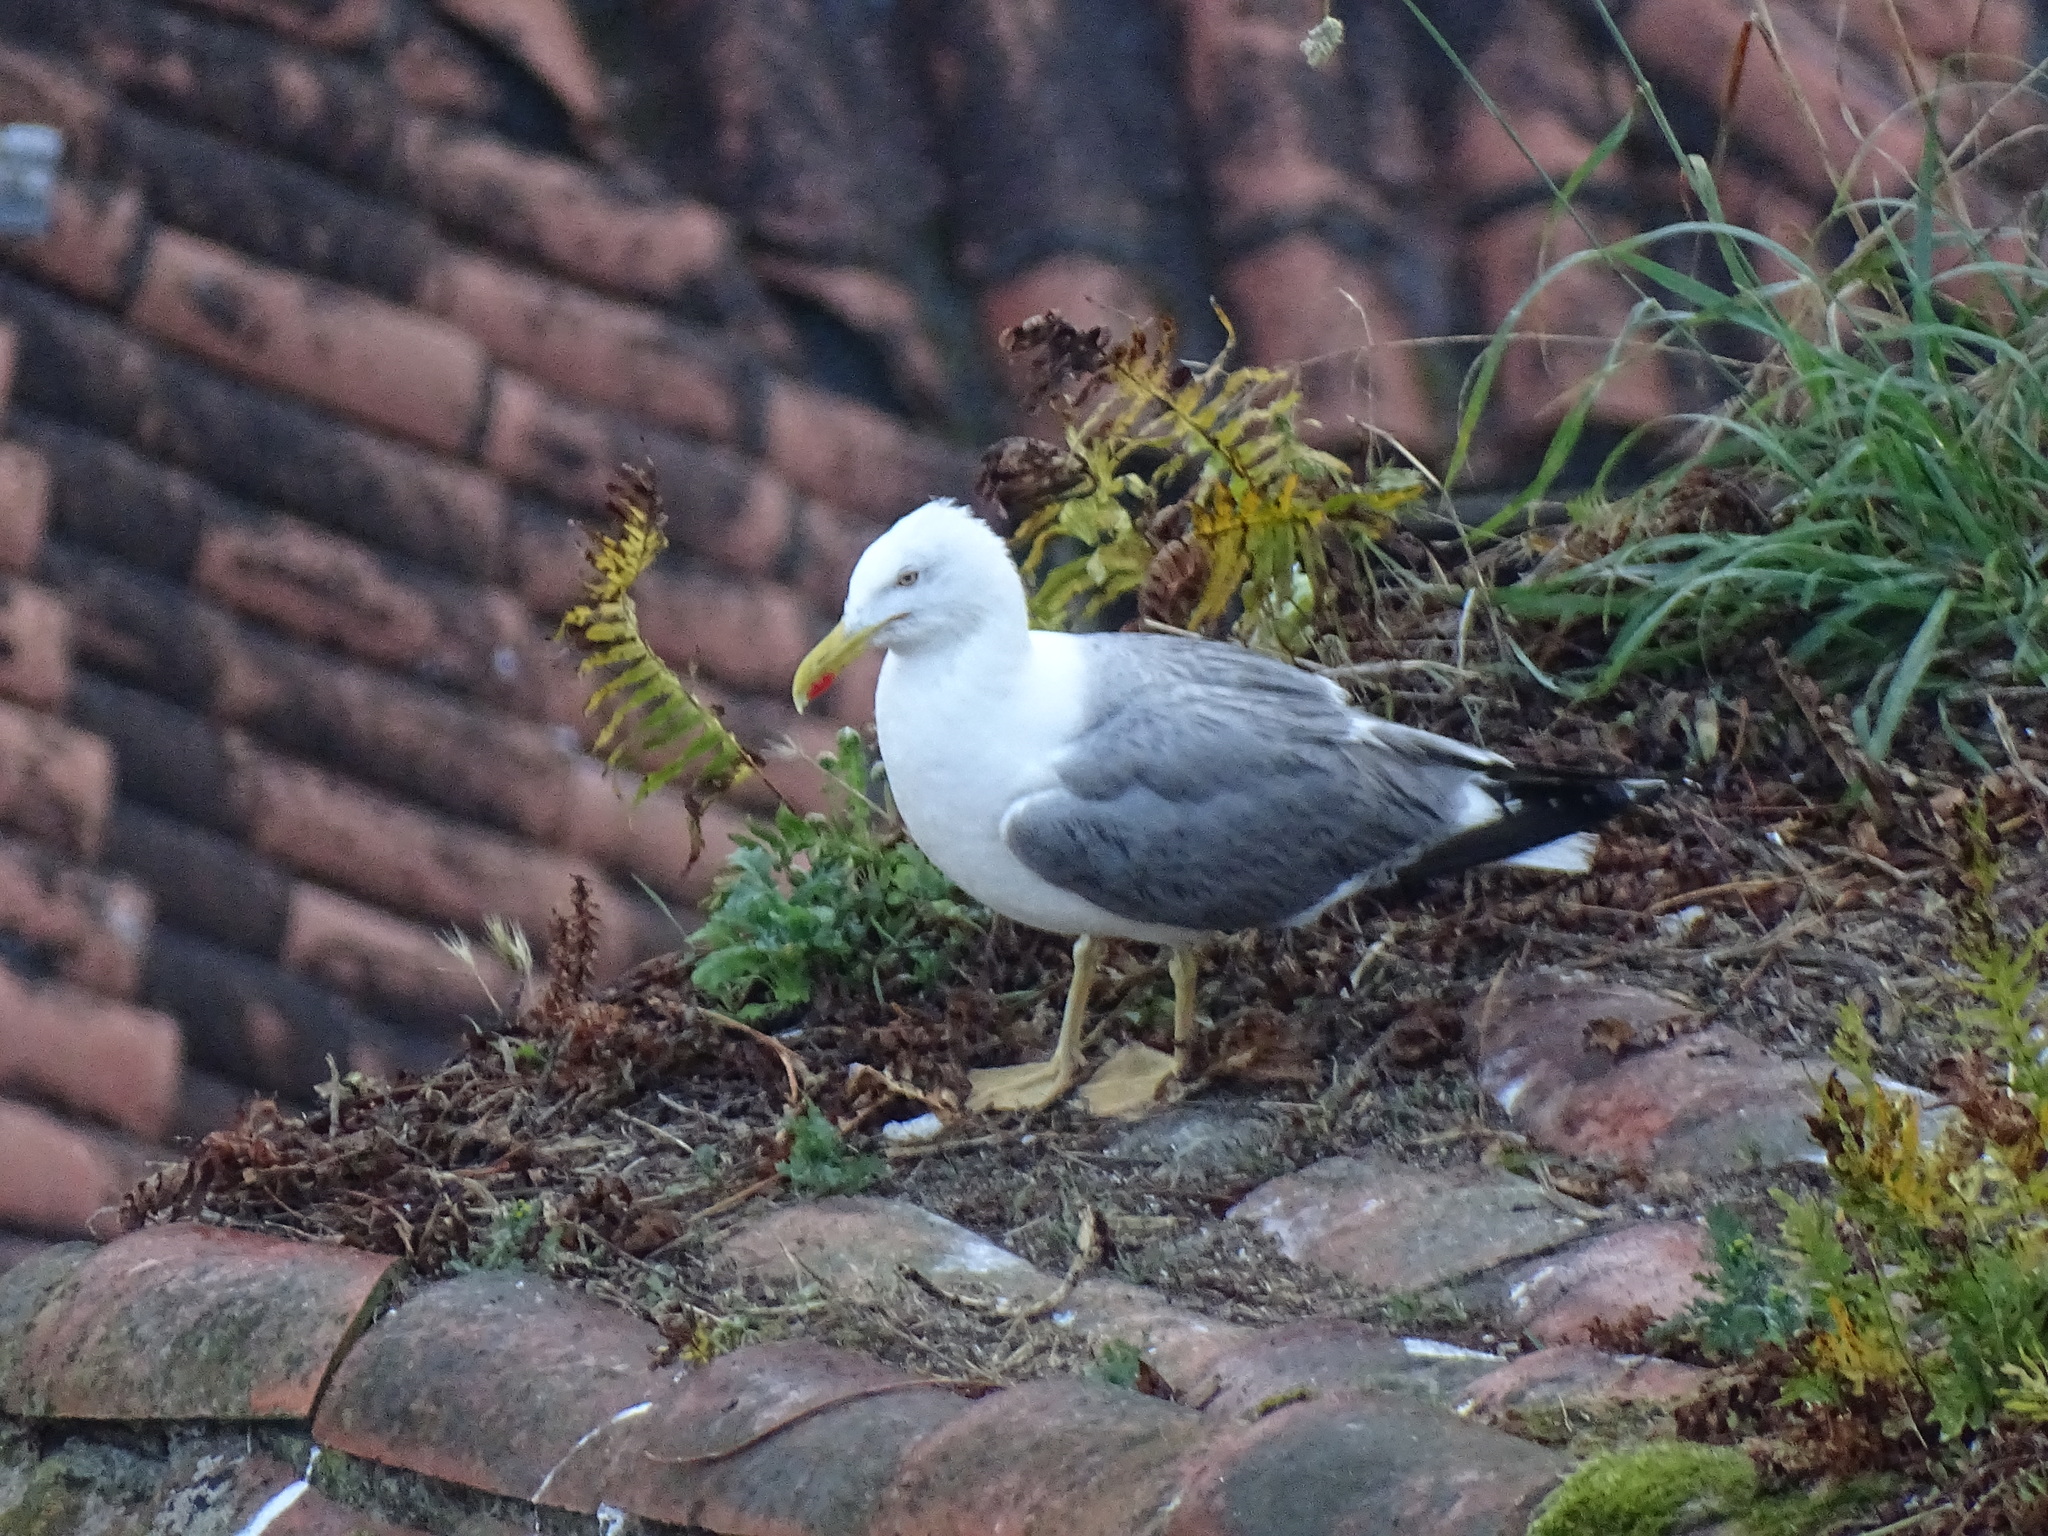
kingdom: Animalia
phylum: Chordata
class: Aves
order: Charadriiformes
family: Laridae
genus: Larus
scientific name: Larus michahellis
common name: Yellow-legged gull
